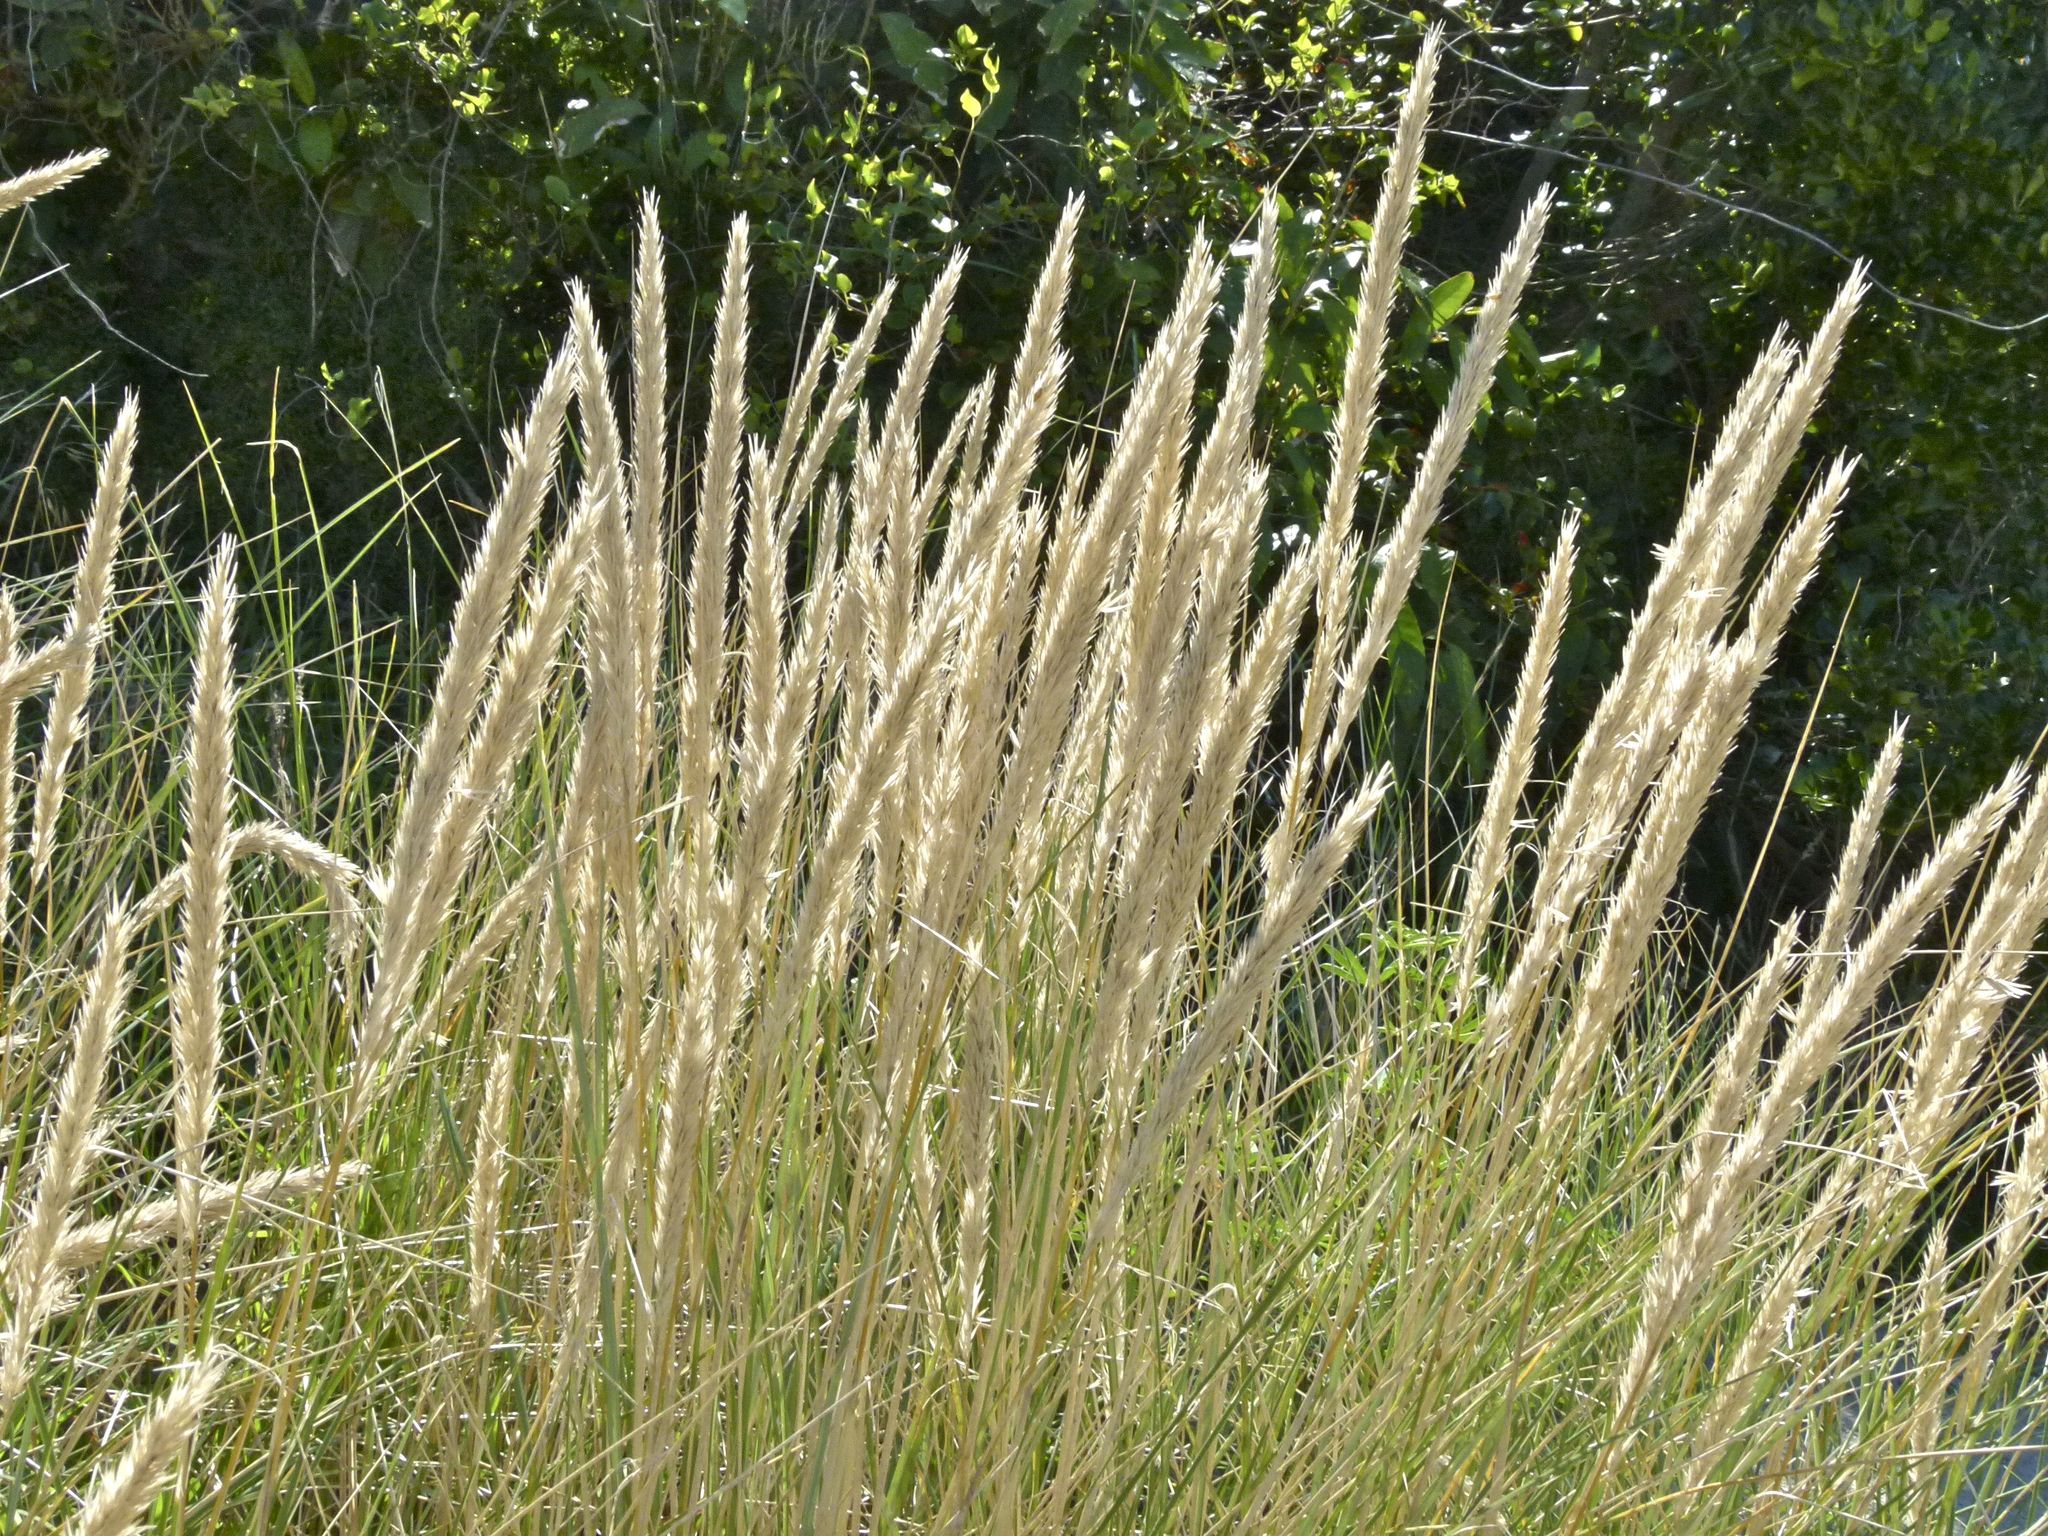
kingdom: Plantae
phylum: Tracheophyta
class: Liliopsida
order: Poales
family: Poaceae
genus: Calamagrostis
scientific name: Calamagrostis arenaria
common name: European beachgrass
